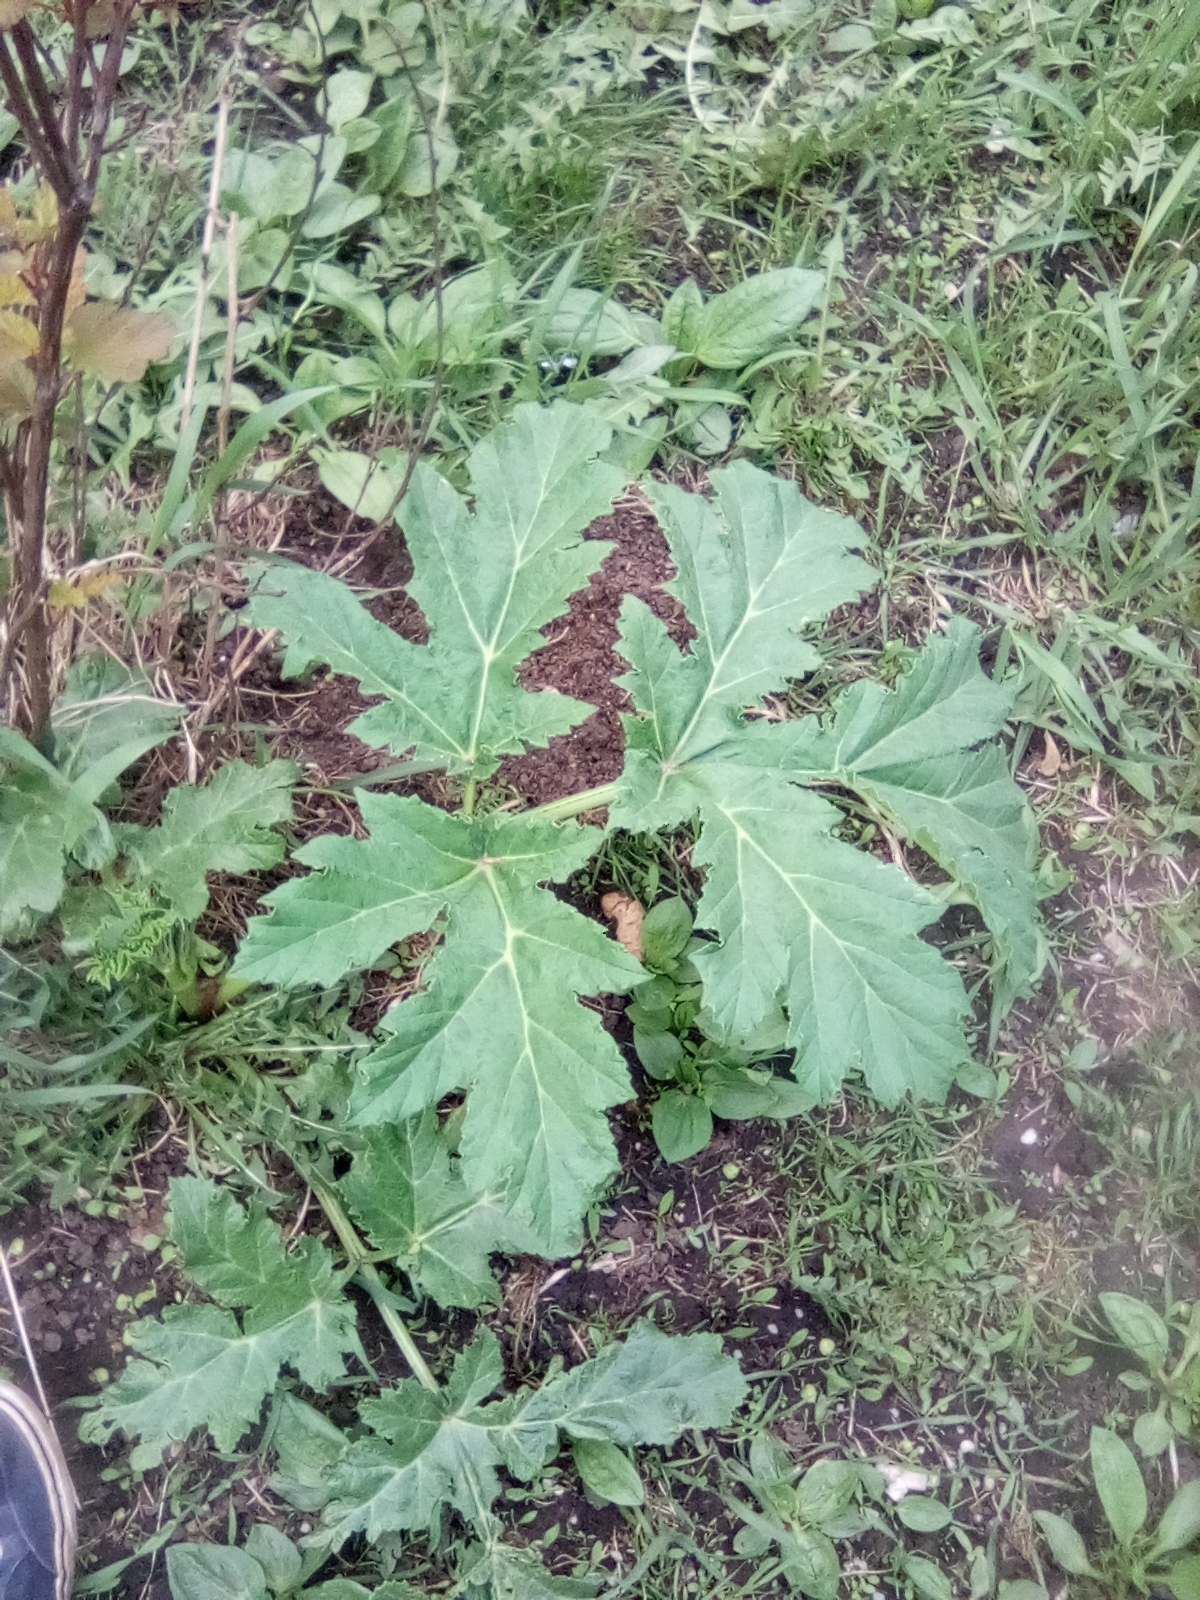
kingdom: Plantae
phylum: Tracheophyta
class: Magnoliopsida
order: Apiales
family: Apiaceae
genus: Heracleum
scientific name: Heracleum sosnowskyi
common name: Sosnowsky's hogweed
